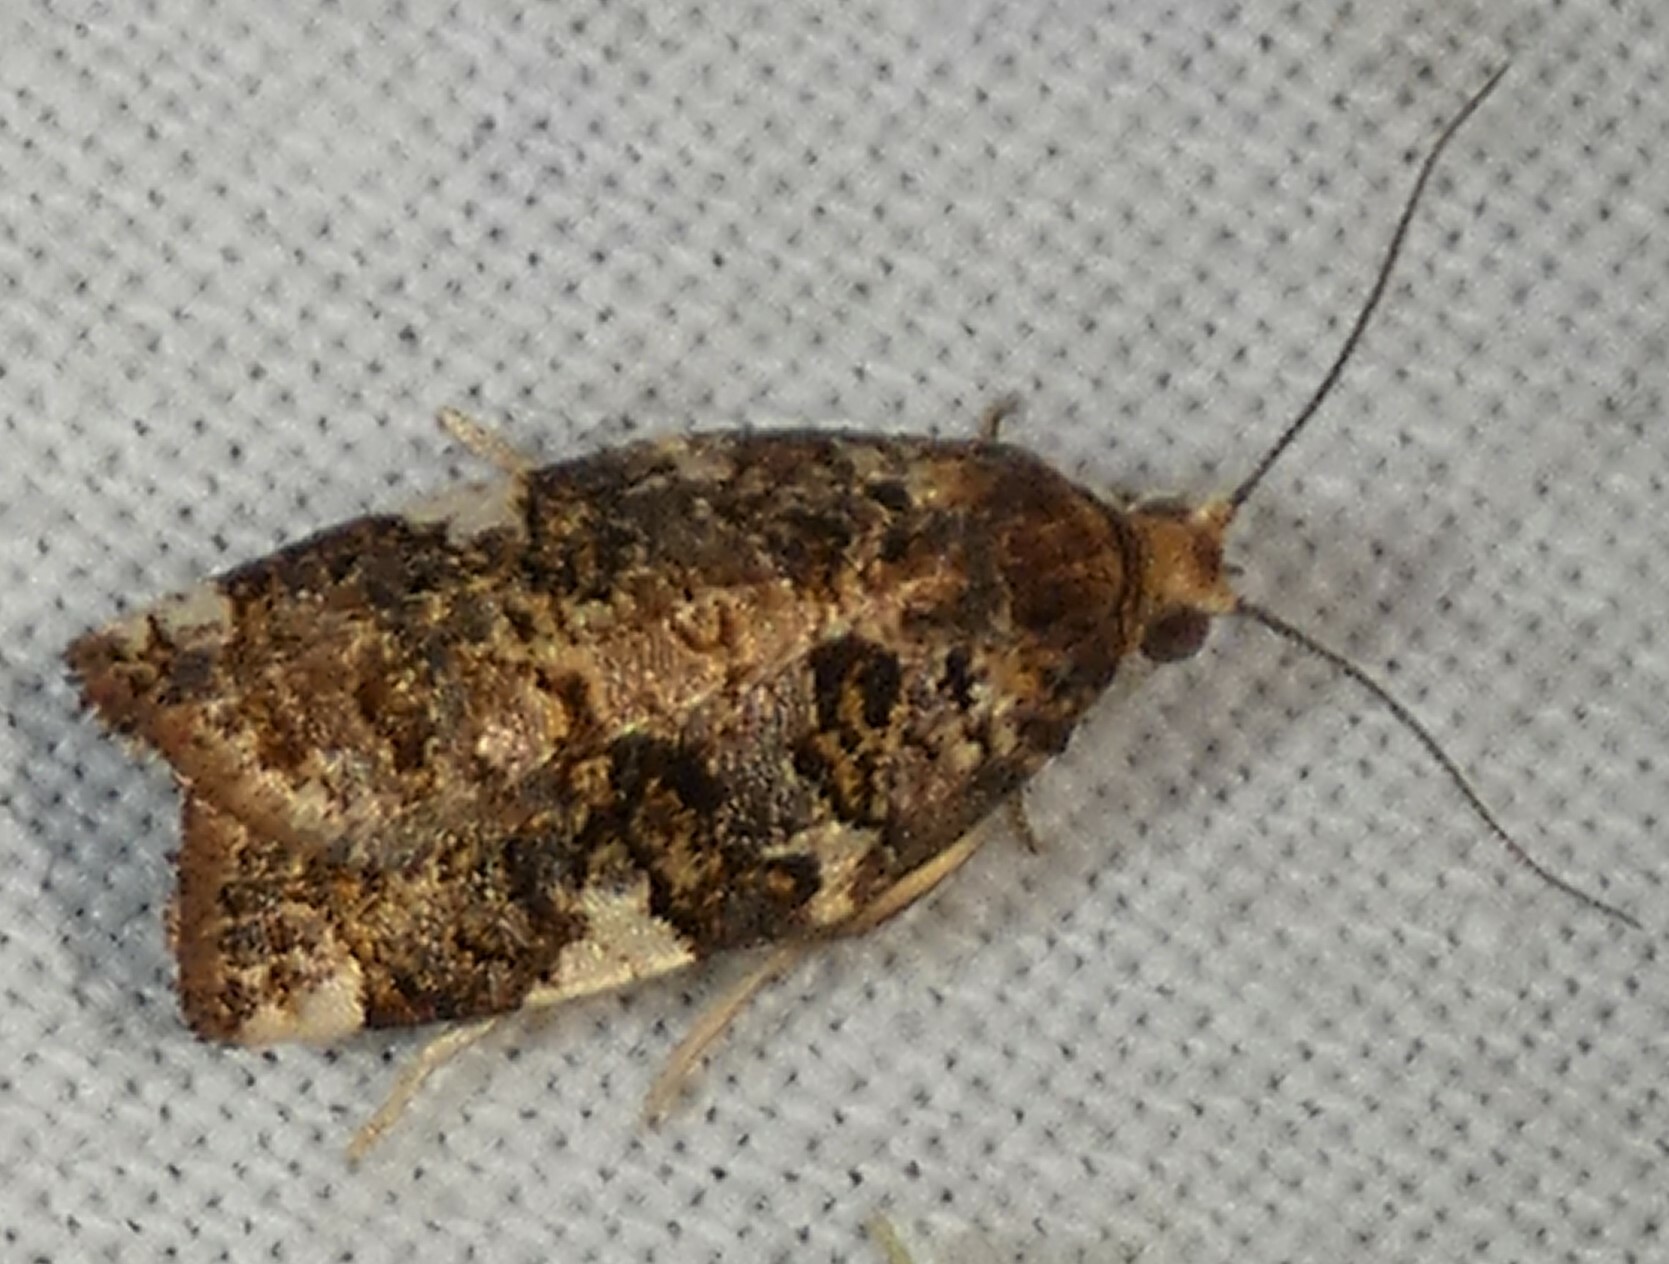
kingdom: Animalia
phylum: Arthropoda
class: Insecta
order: Lepidoptera
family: Tortricidae
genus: Archips
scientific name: Archips argyrospila
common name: Fruit-tree leafroller moth
